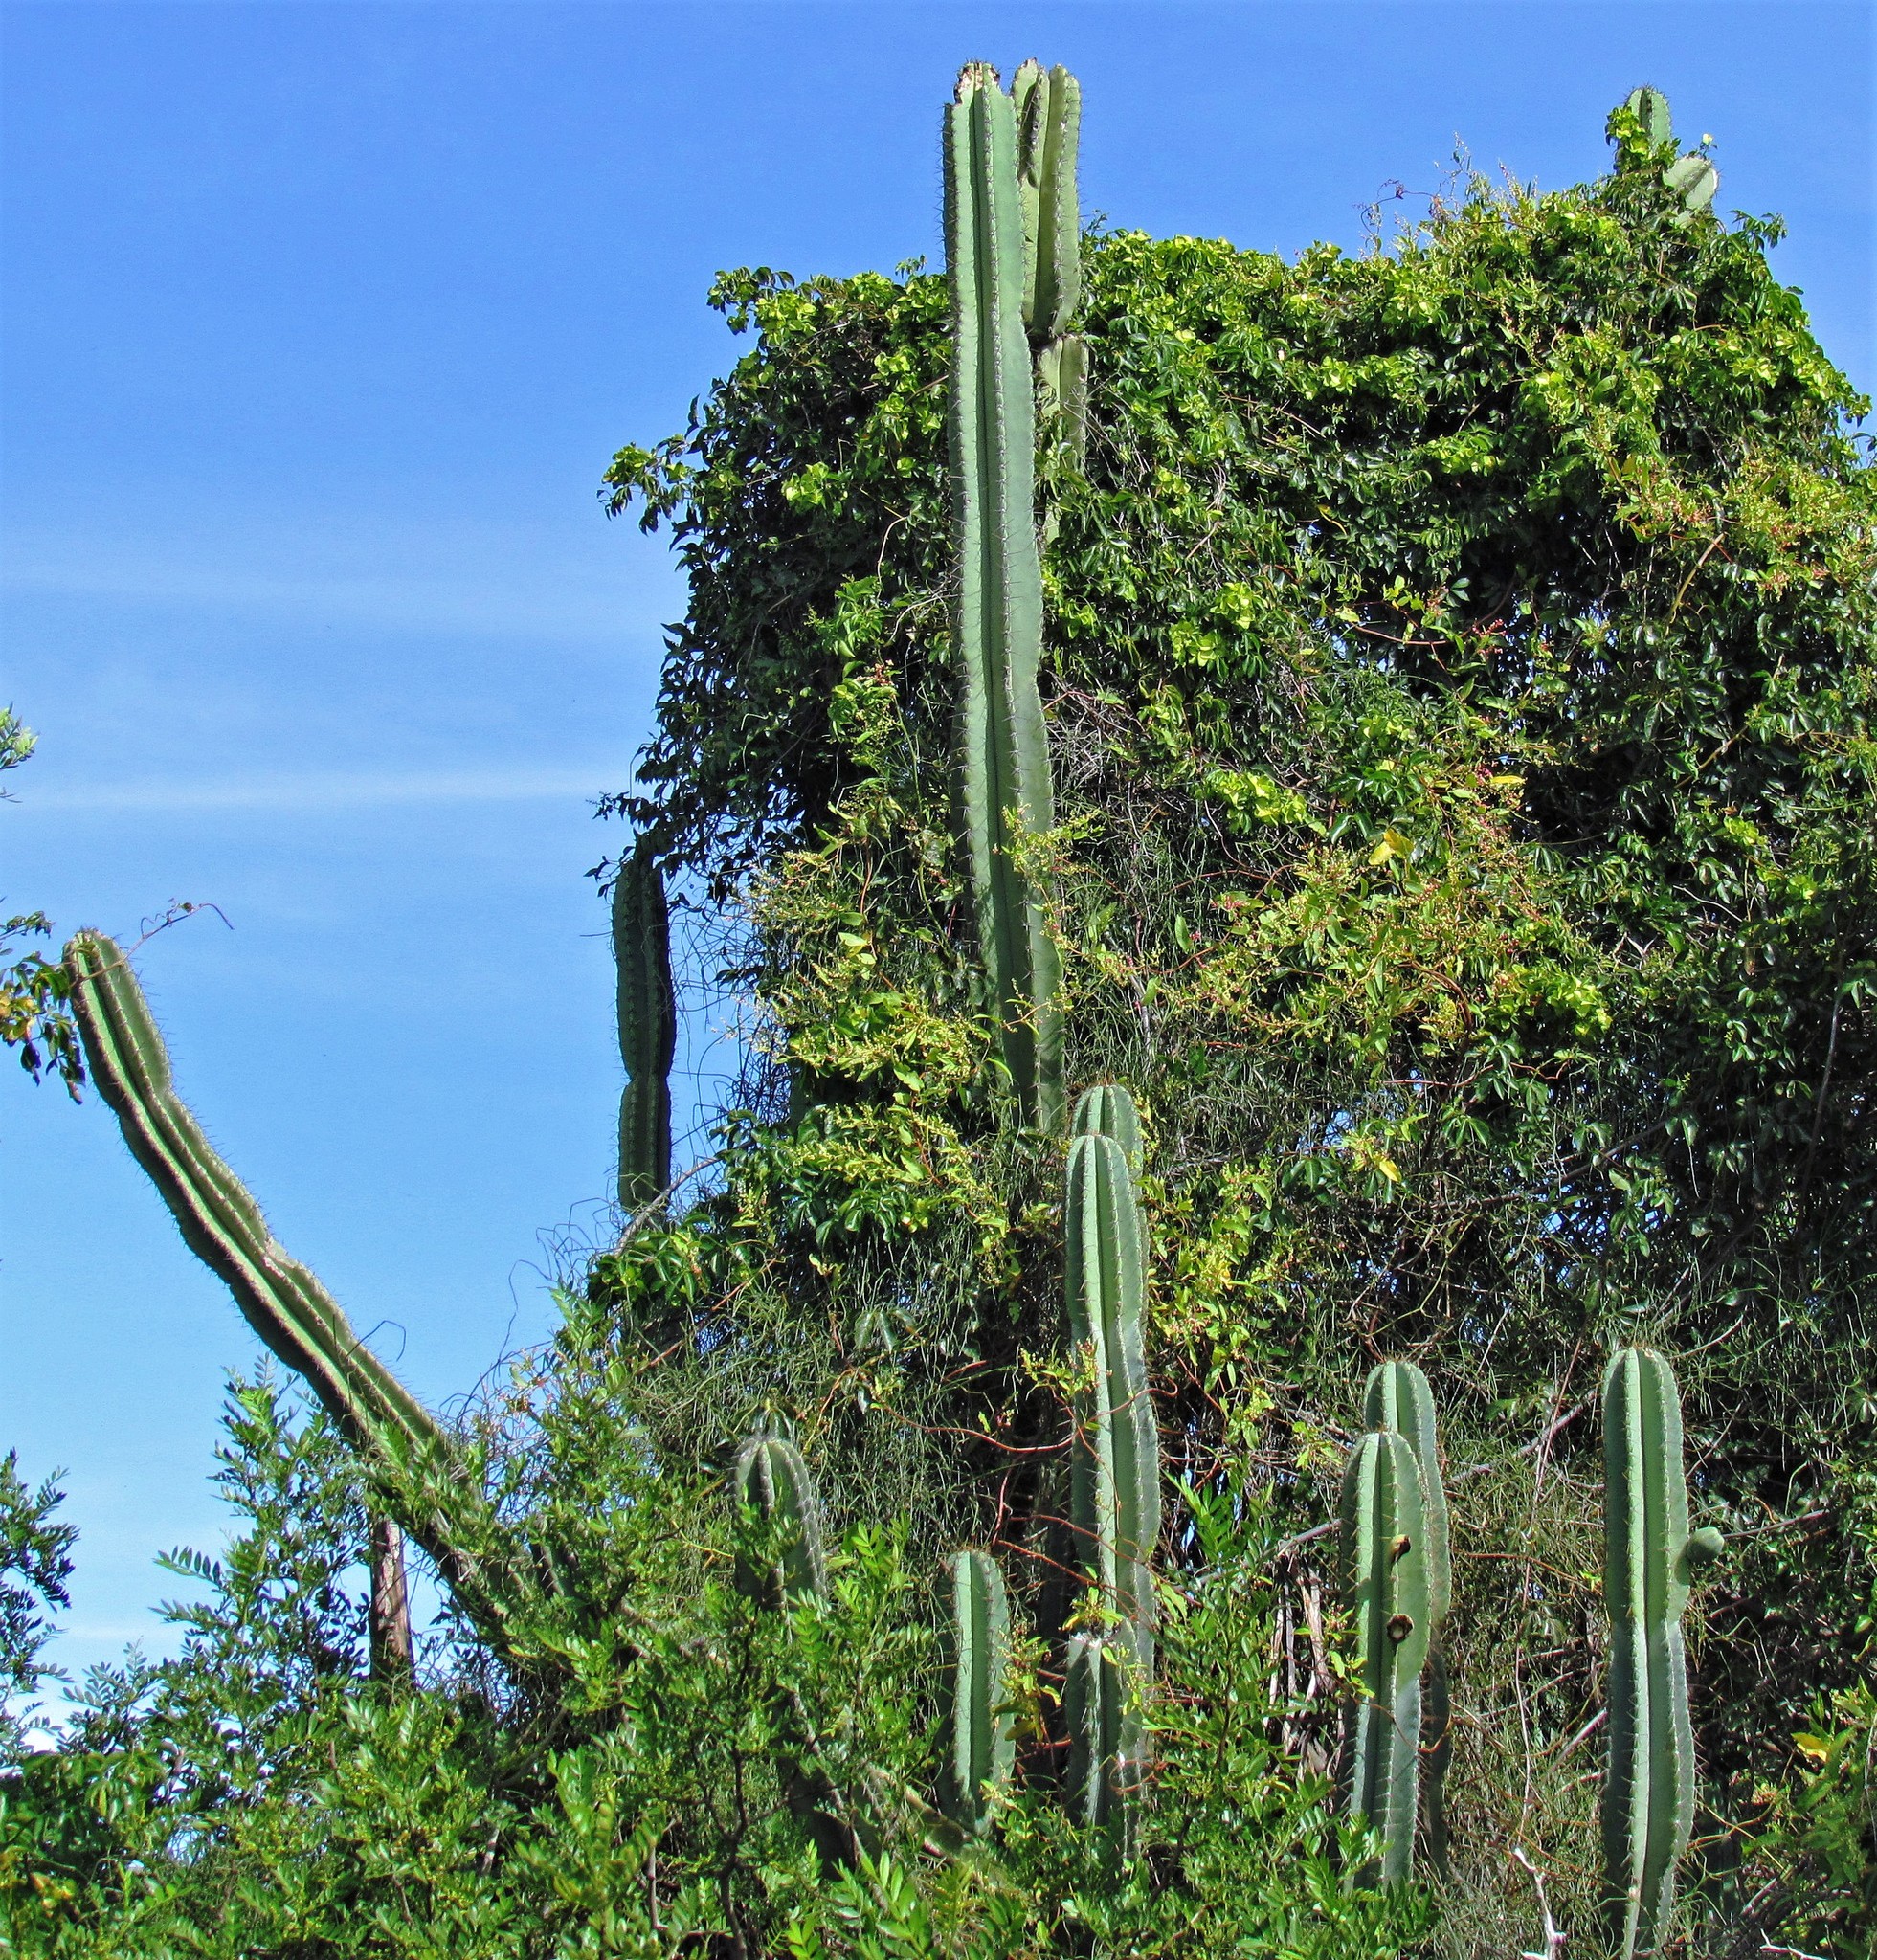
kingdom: Plantae
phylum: Tracheophyta
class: Magnoliopsida
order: Caryophyllales
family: Cactaceae
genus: Cereus
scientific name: Cereus hildmannianus
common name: Hedge cactus
